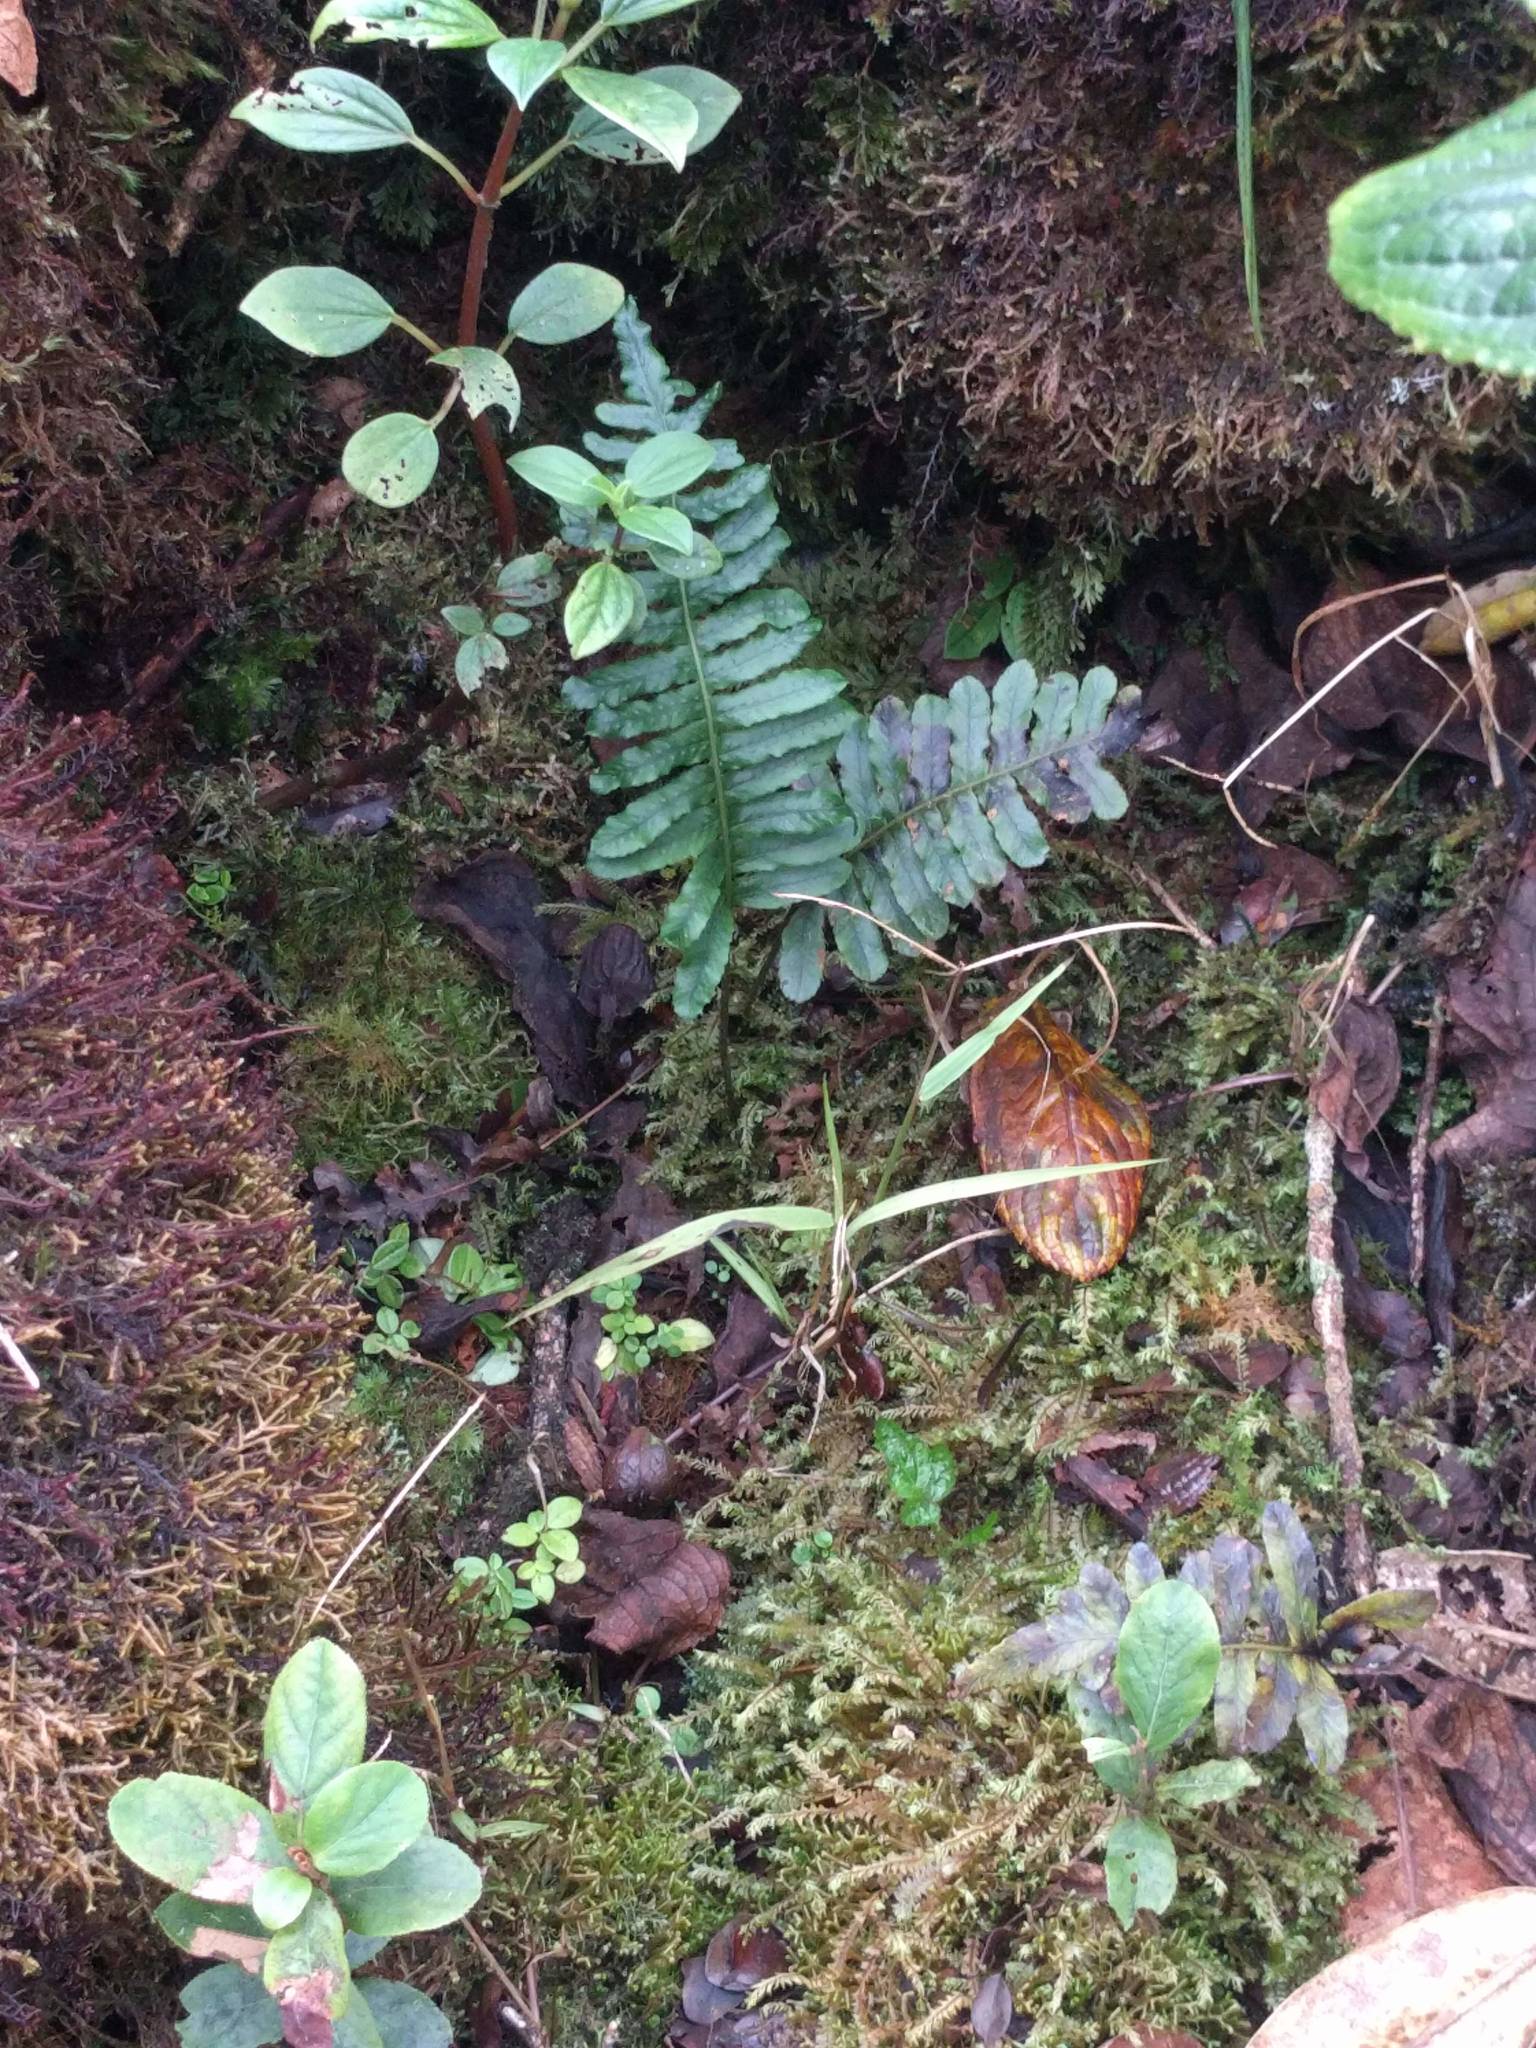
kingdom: Plantae
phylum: Tracheophyta
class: Polypodiopsida
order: Polypodiales
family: Polypodiaceae
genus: Polypodium
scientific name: Polypodium pellucidum
